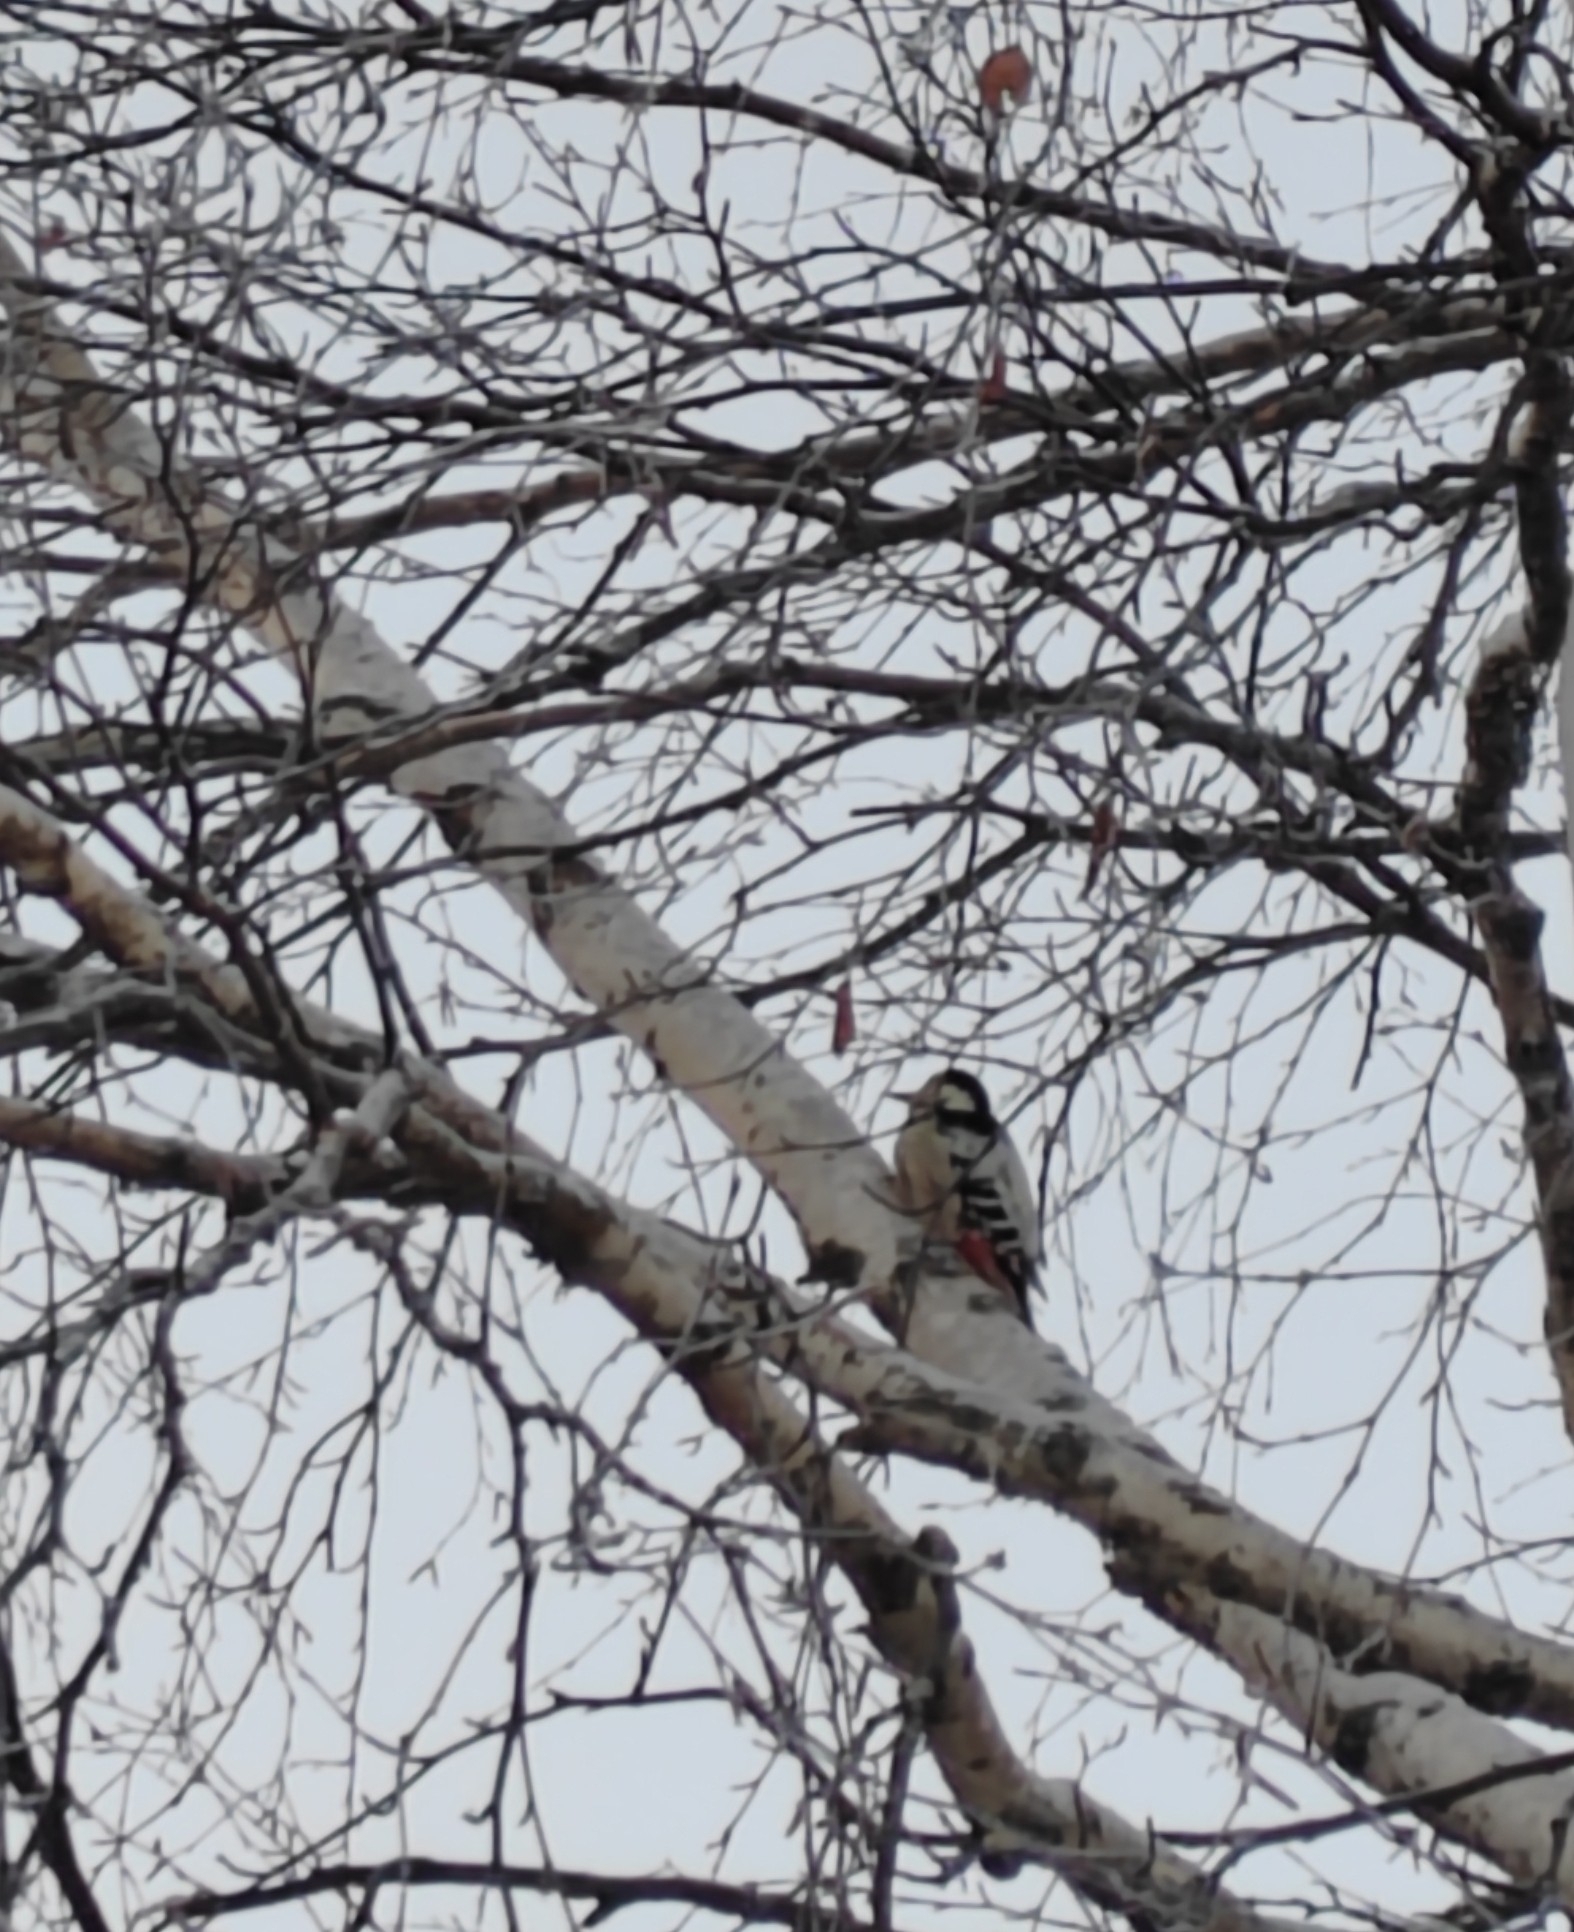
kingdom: Animalia
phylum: Chordata
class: Aves
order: Piciformes
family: Picidae
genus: Dendrocopos
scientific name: Dendrocopos leucotos
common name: White-backed woodpecker
